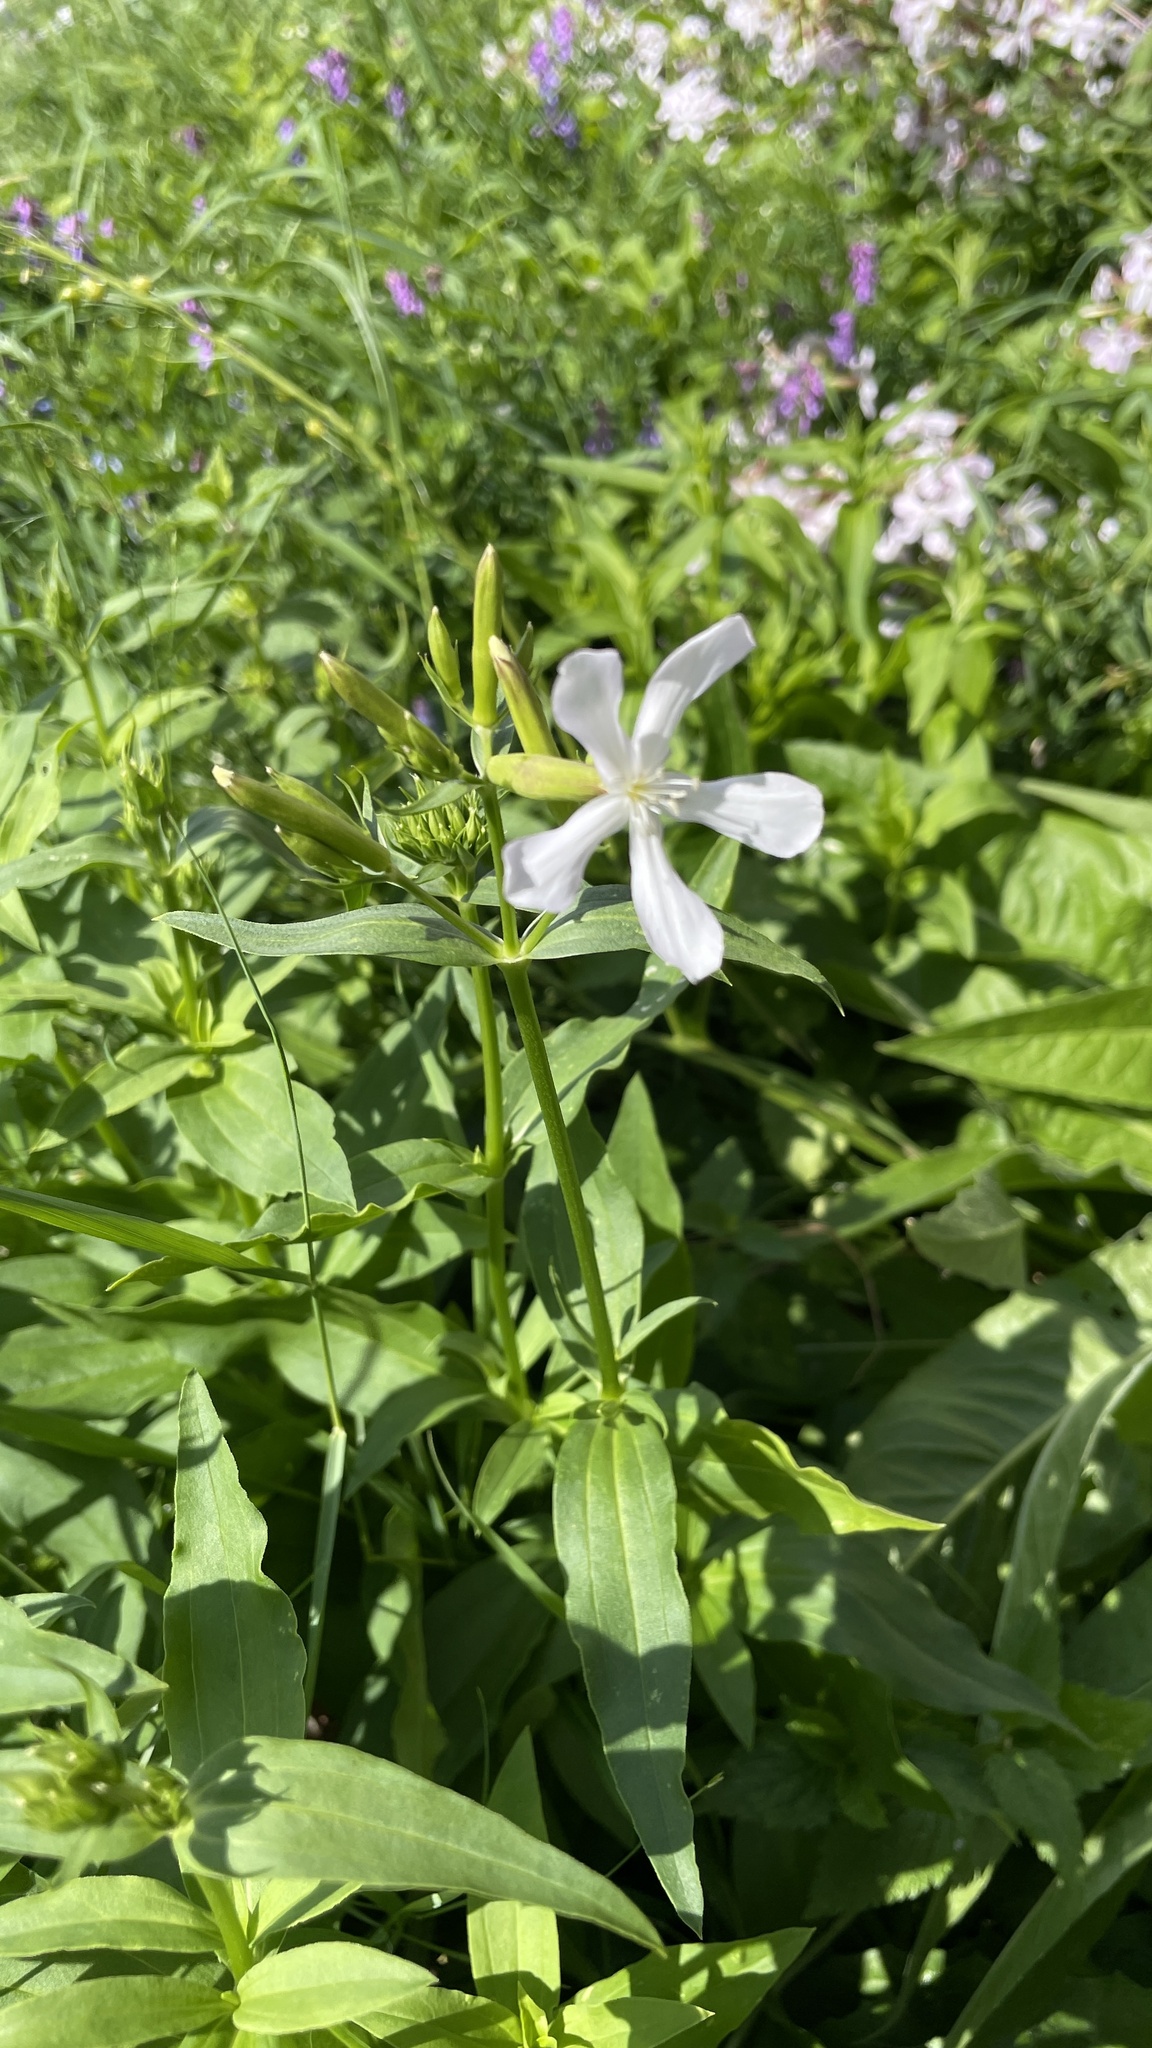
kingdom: Plantae
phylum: Tracheophyta
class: Magnoliopsida
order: Caryophyllales
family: Caryophyllaceae
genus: Saponaria
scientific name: Saponaria officinalis
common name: Soapwort
